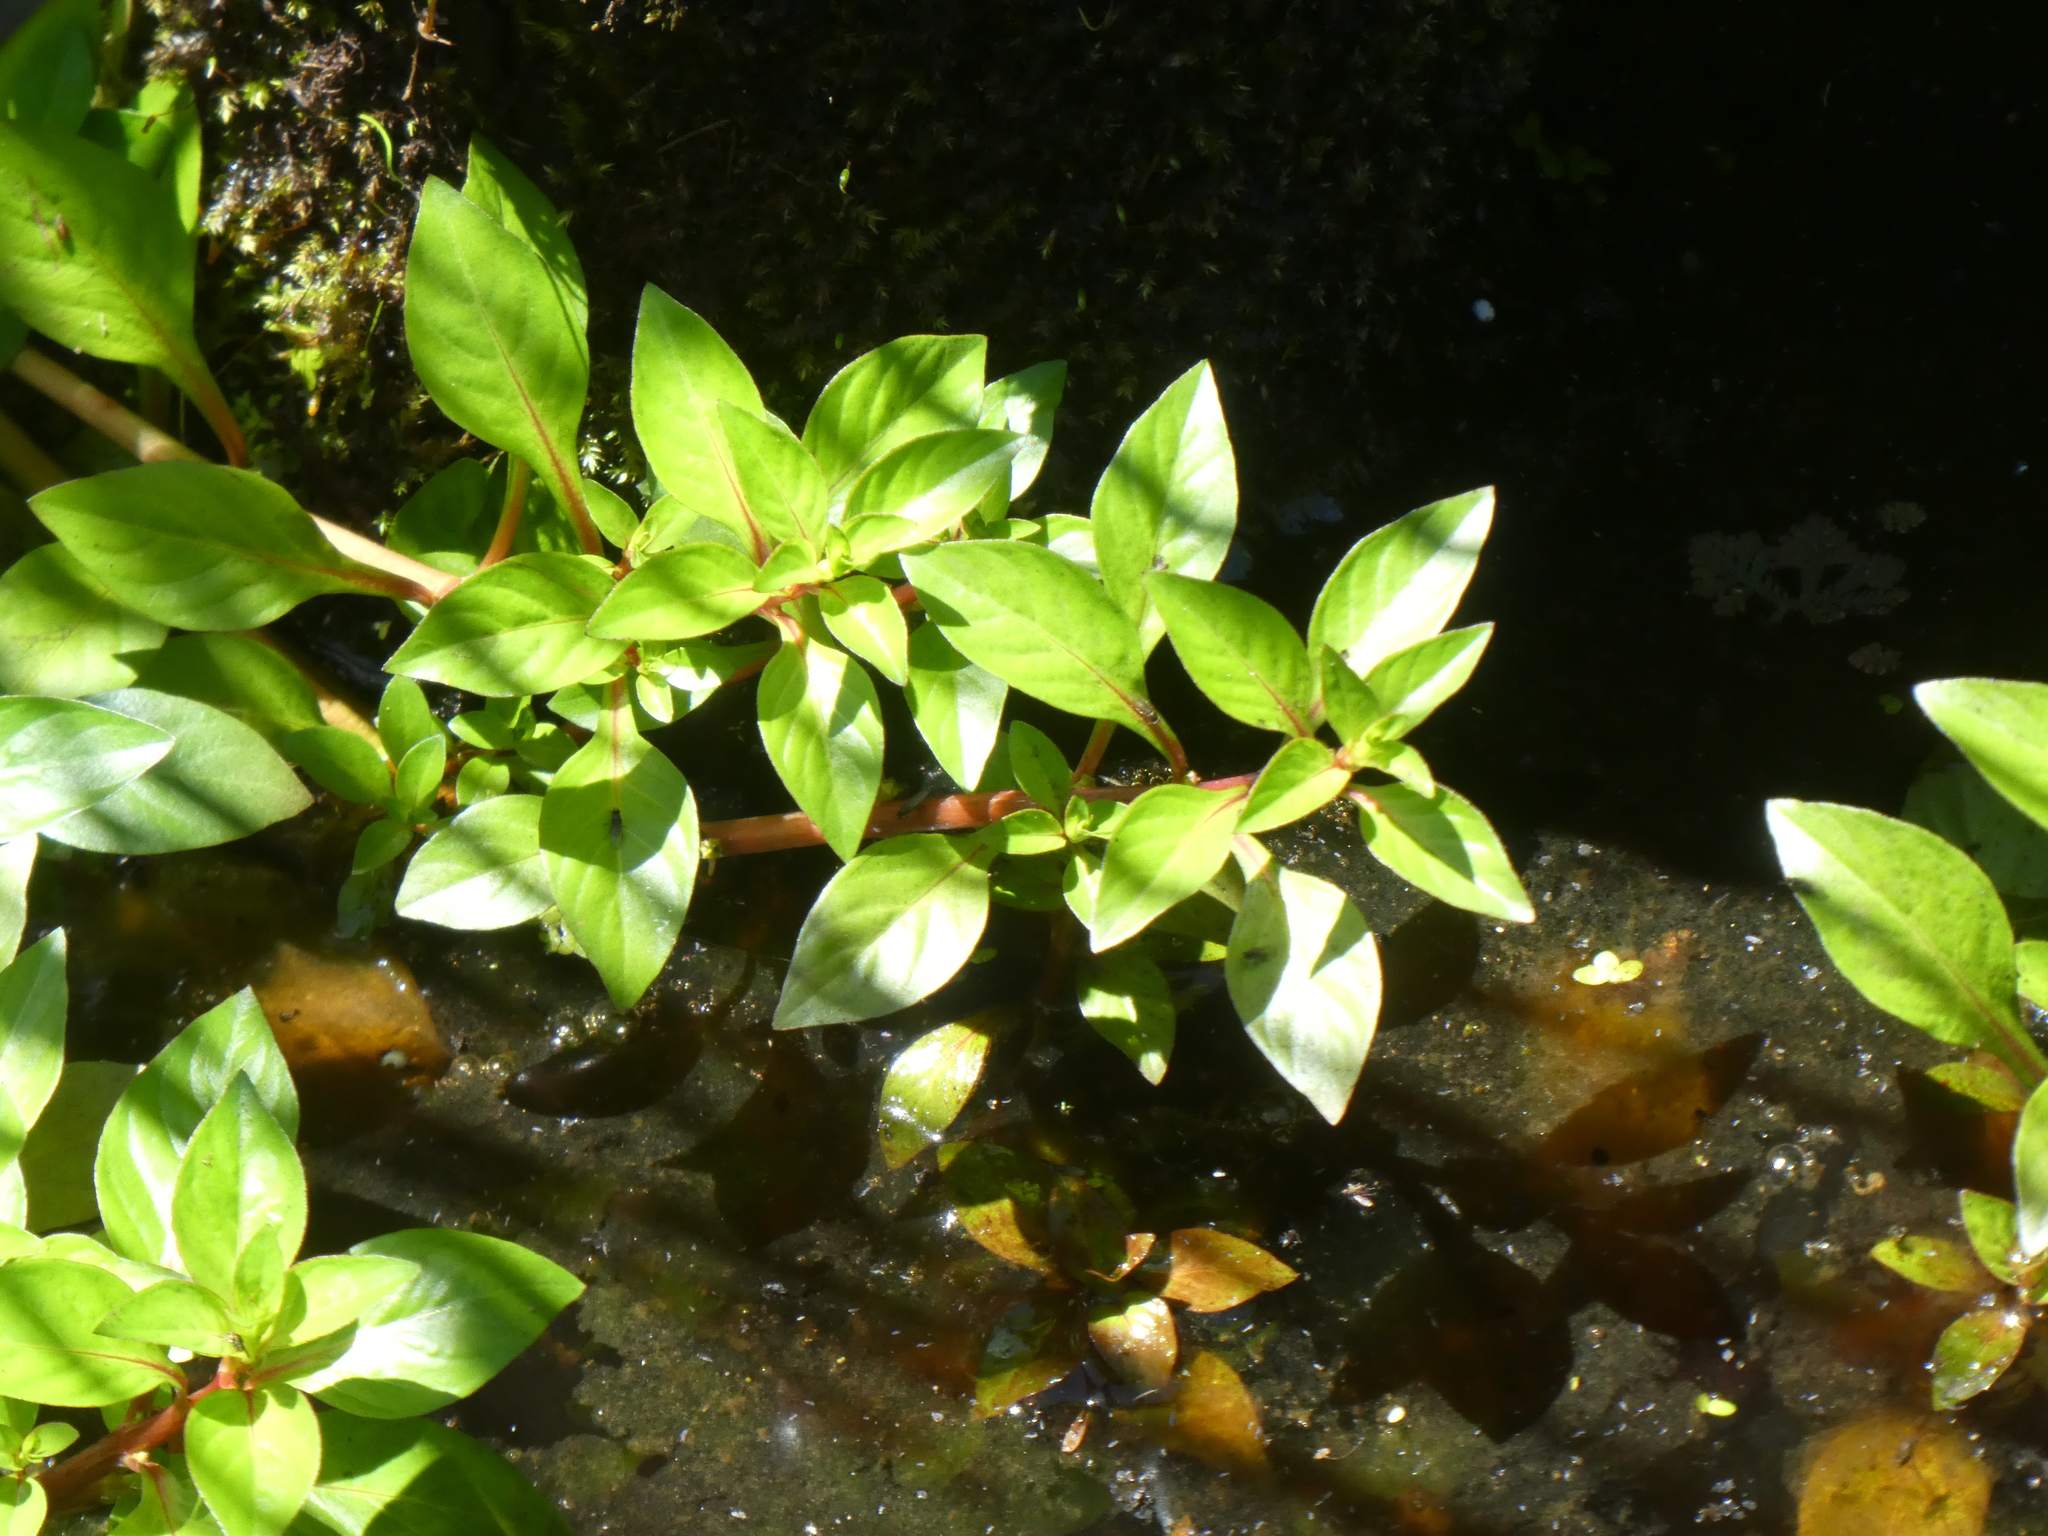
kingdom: Plantae
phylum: Tracheophyta
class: Magnoliopsida
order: Myrtales
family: Onagraceae
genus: Ludwigia
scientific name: Ludwigia palustris
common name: Hampshire-purslane
